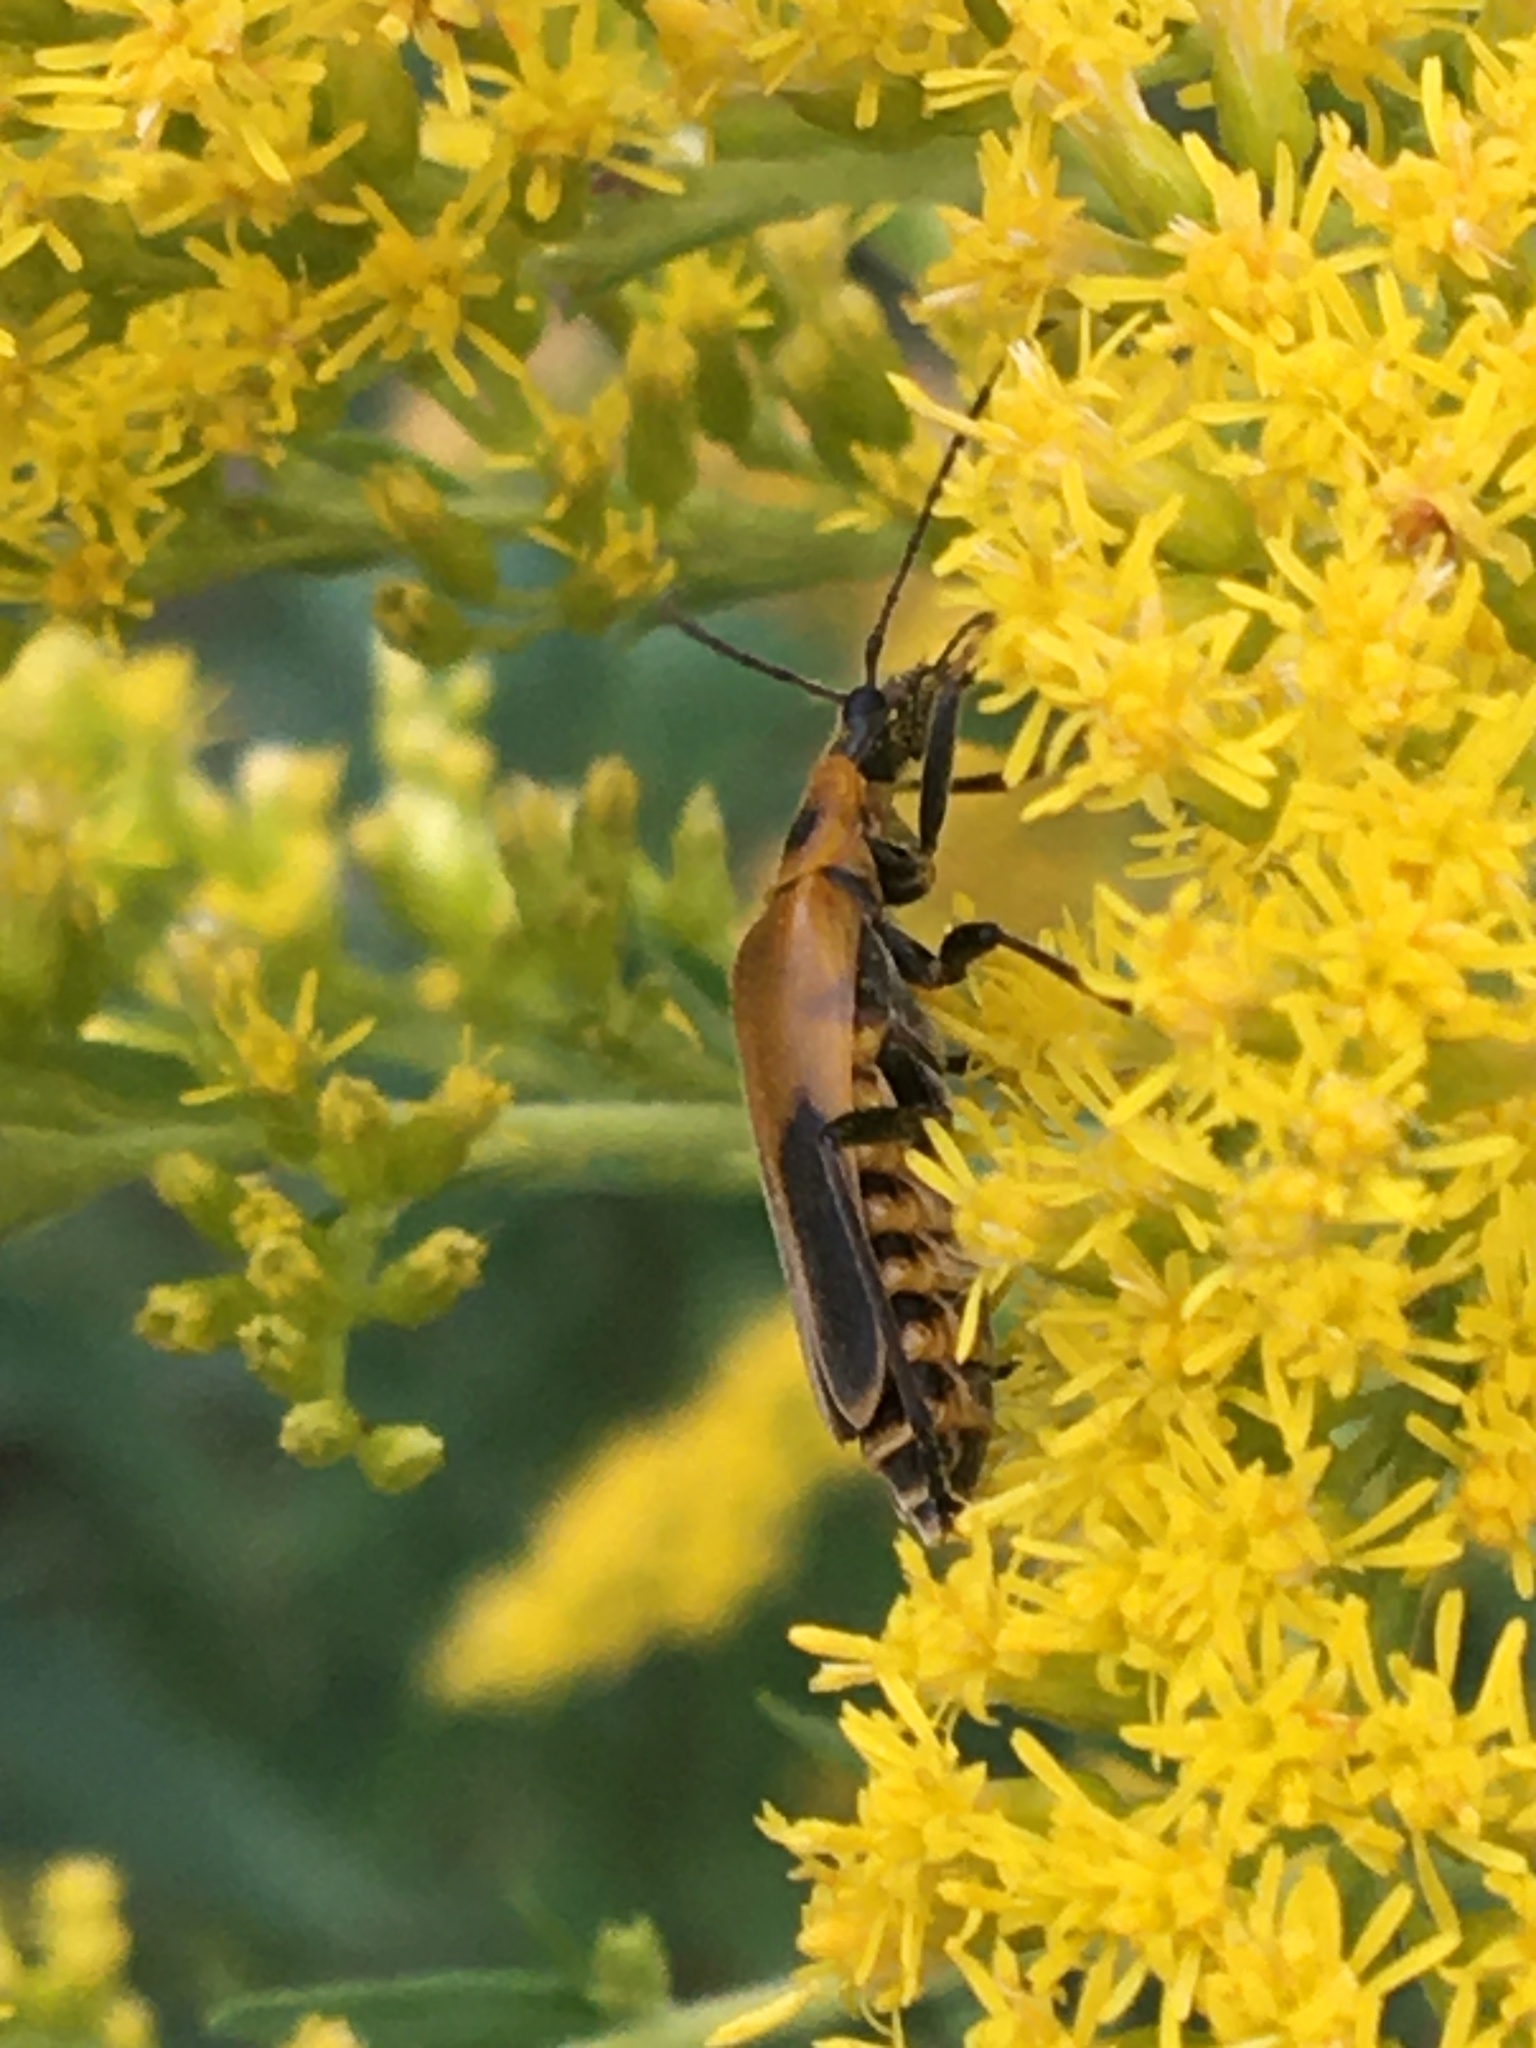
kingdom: Animalia
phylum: Arthropoda
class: Insecta
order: Coleoptera
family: Cantharidae
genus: Chauliognathus
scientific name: Chauliognathus pensylvanicus
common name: Goldenrod soldier beetle
